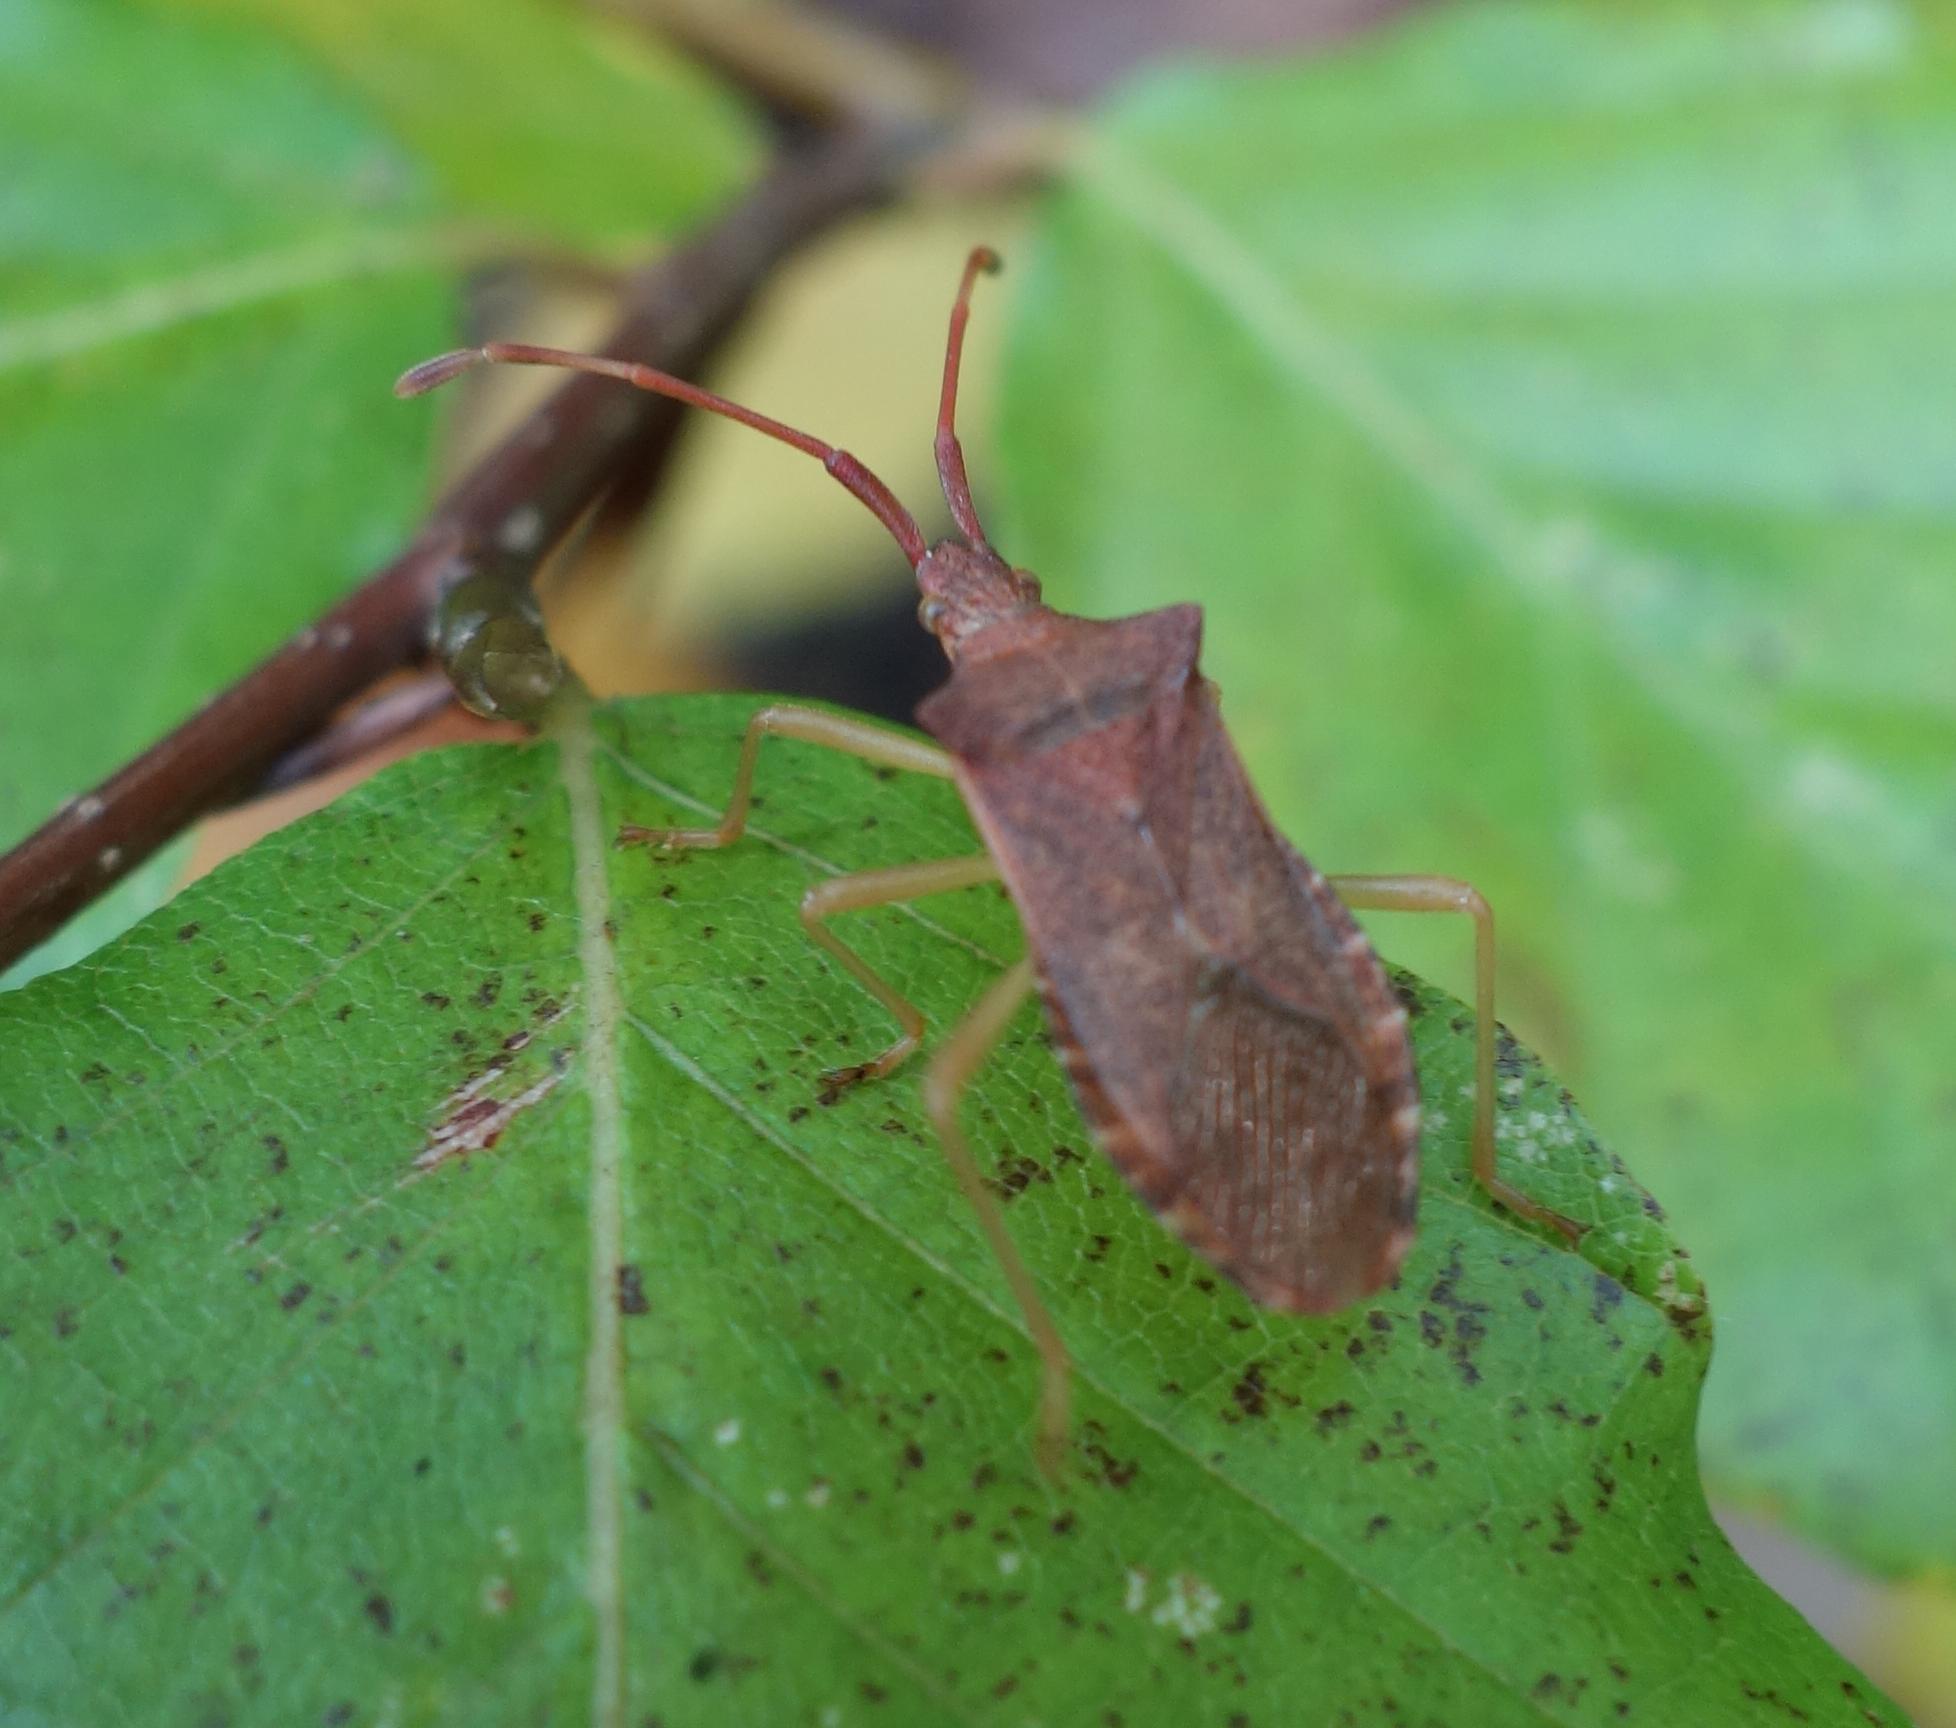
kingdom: Animalia
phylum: Arthropoda
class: Insecta
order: Hemiptera
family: Coreidae
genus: Gonocerus
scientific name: Gonocerus acuteangulatus
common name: Box bug
